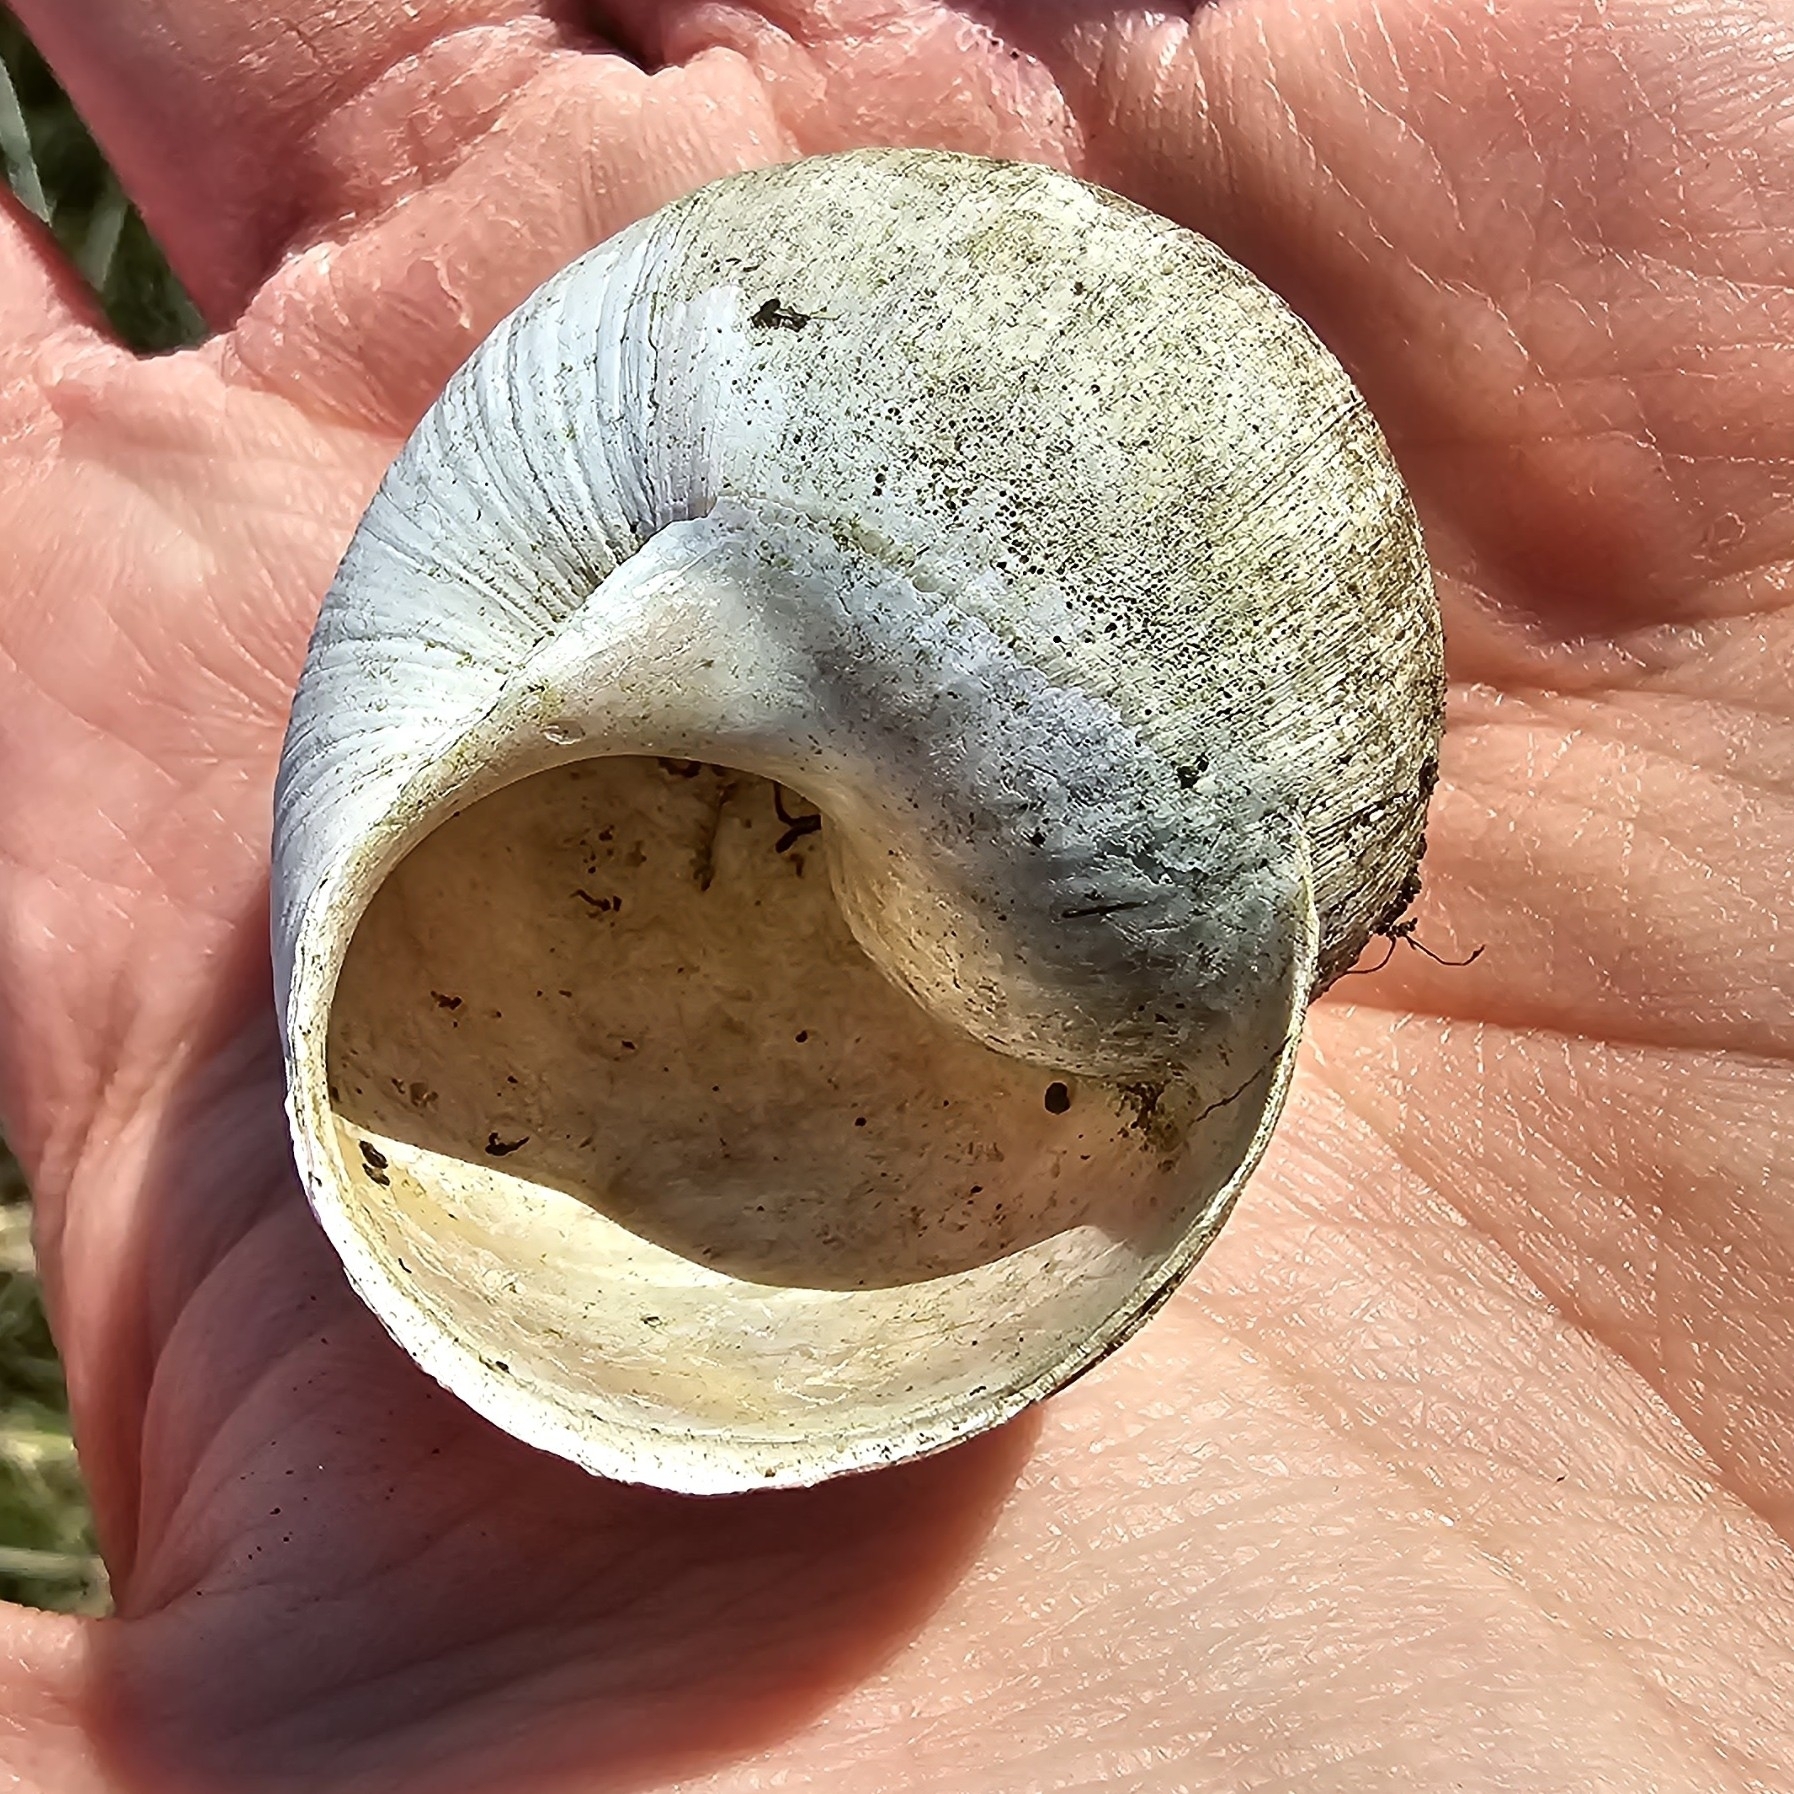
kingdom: Animalia
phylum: Mollusca
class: Gastropoda
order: Stylommatophora
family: Helicidae
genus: Helix
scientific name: Helix pomatia
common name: Roman snail
